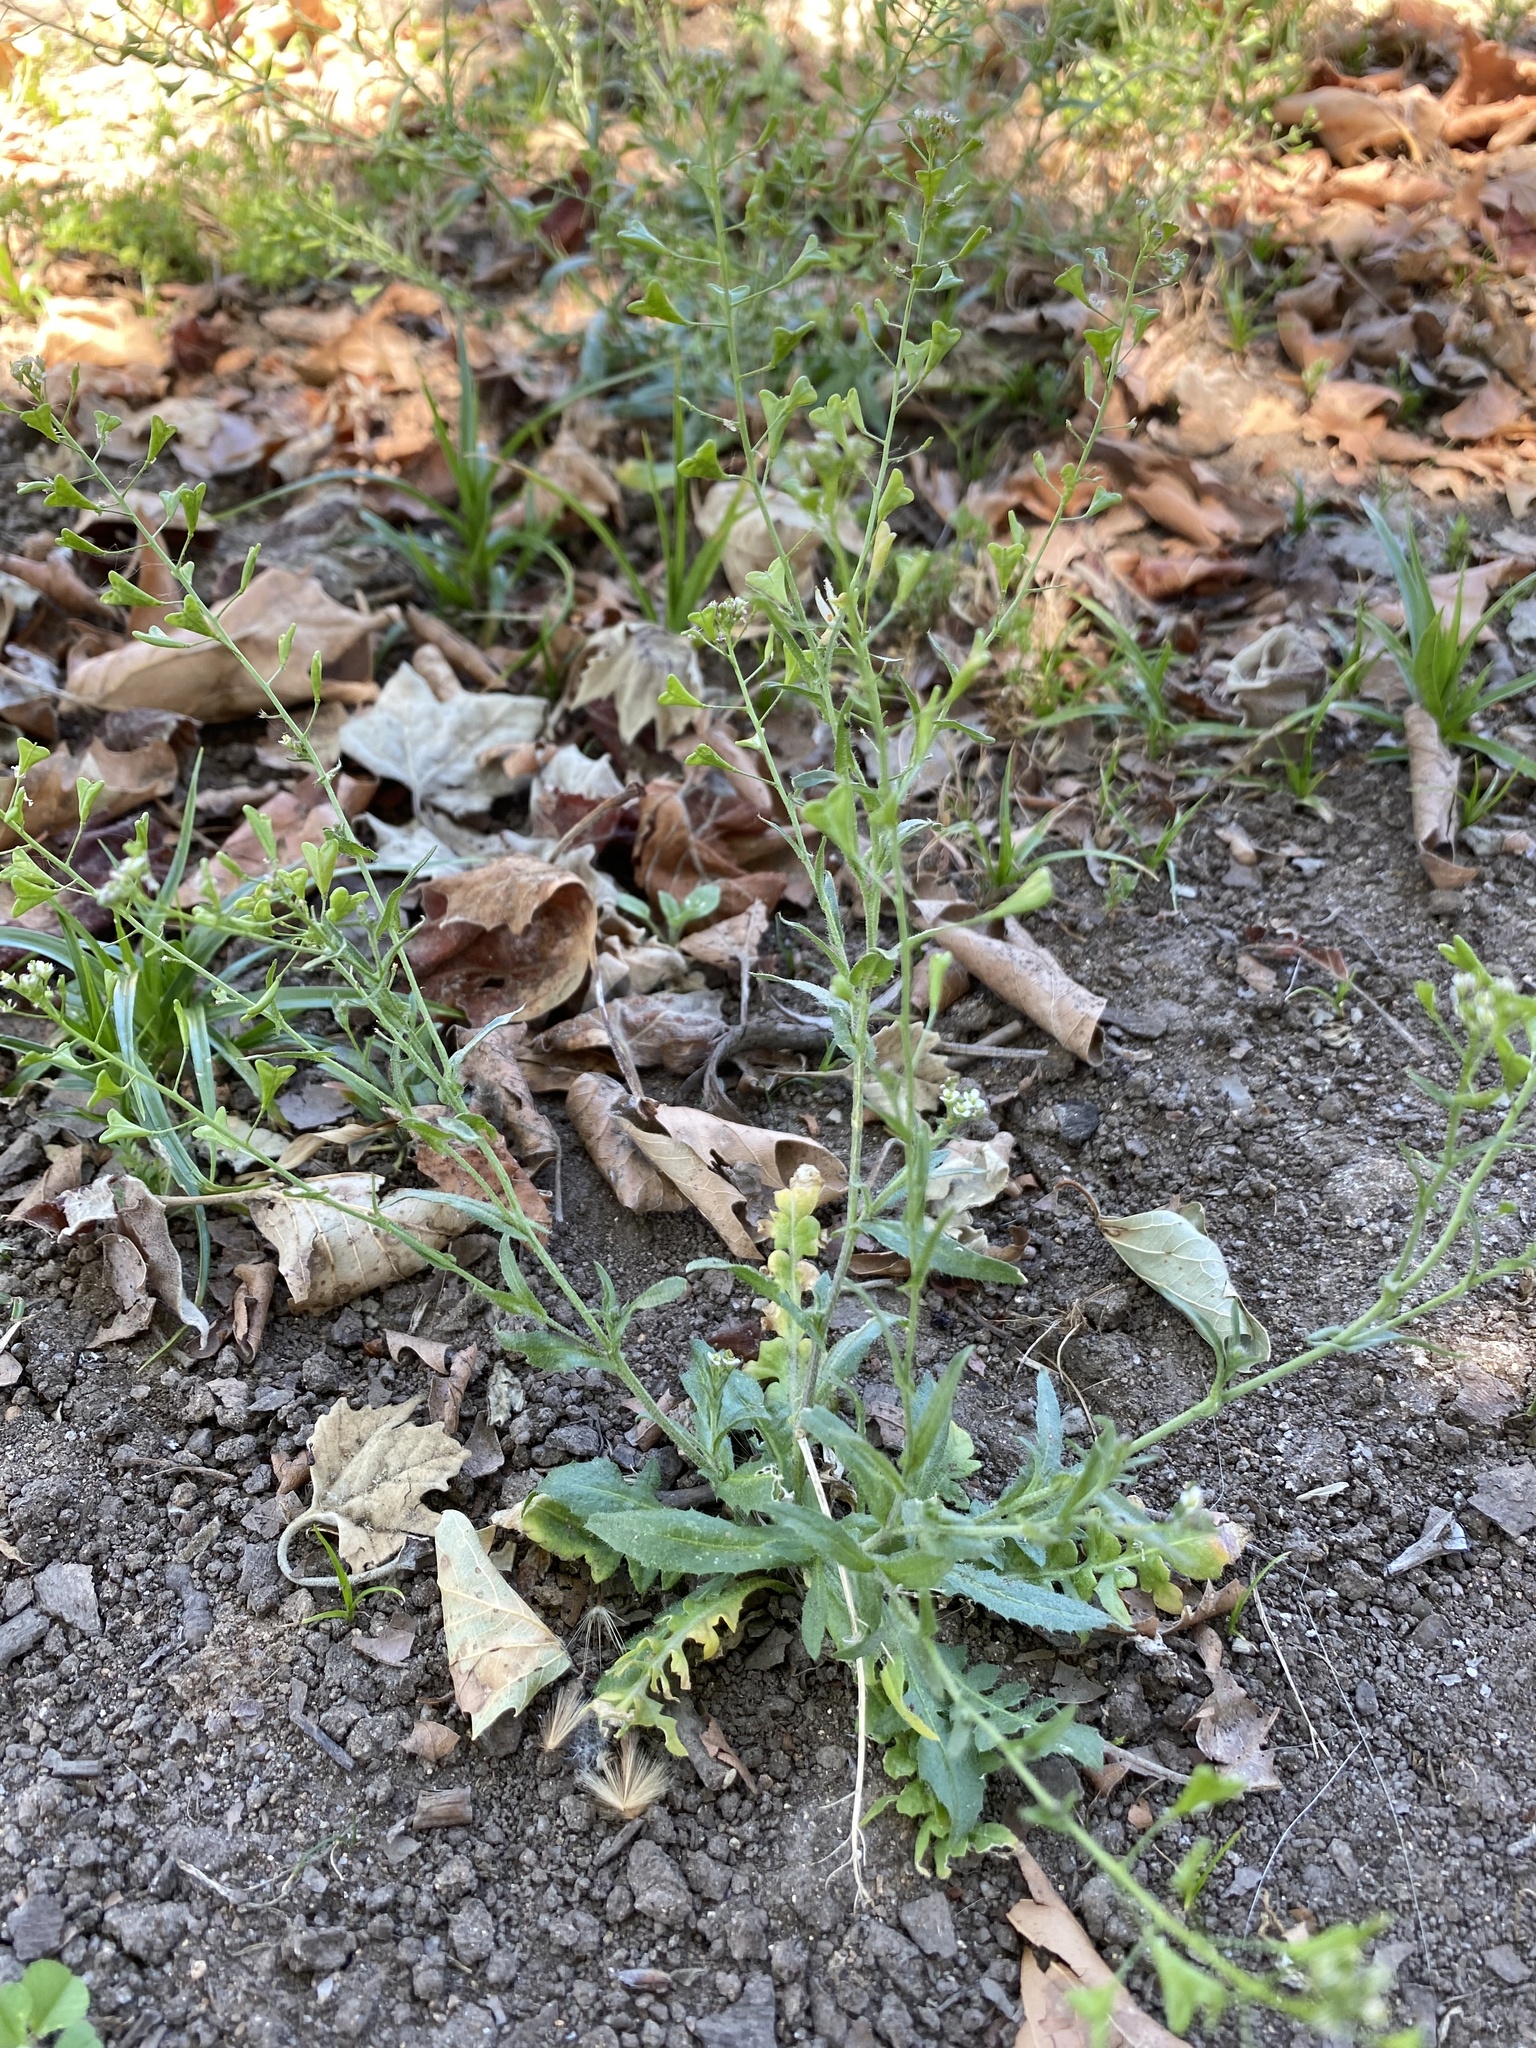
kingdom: Plantae
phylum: Tracheophyta
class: Magnoliopsida
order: Brassicales
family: Brassicaceae
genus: Capsella
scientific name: Capsella bursa-pastoris
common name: Shepherd's purse
